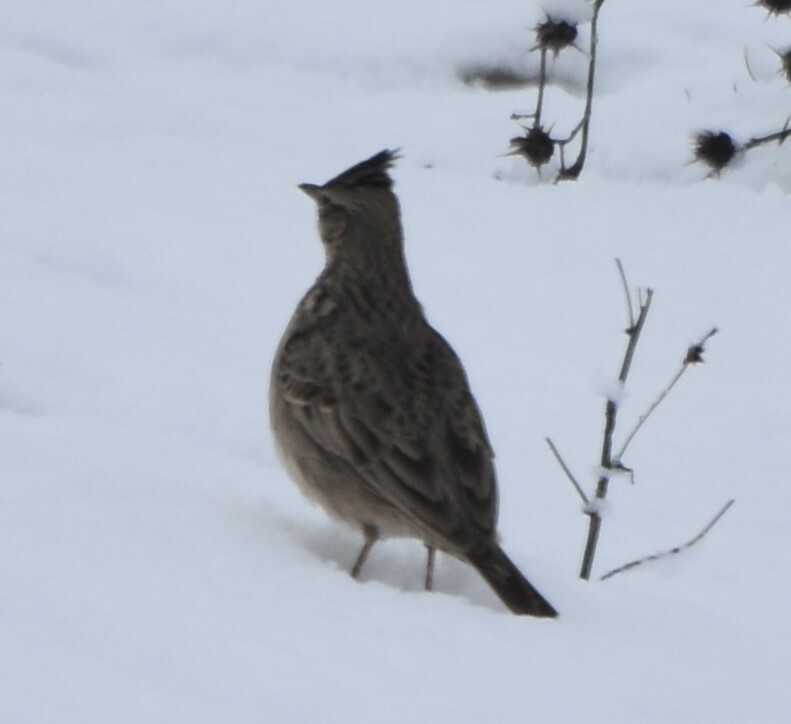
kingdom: Animalia
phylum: Chordata
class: Aves
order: Passeriformes
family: Alaudidae
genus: Galerida
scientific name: Galerida cristata
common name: Crested lark
